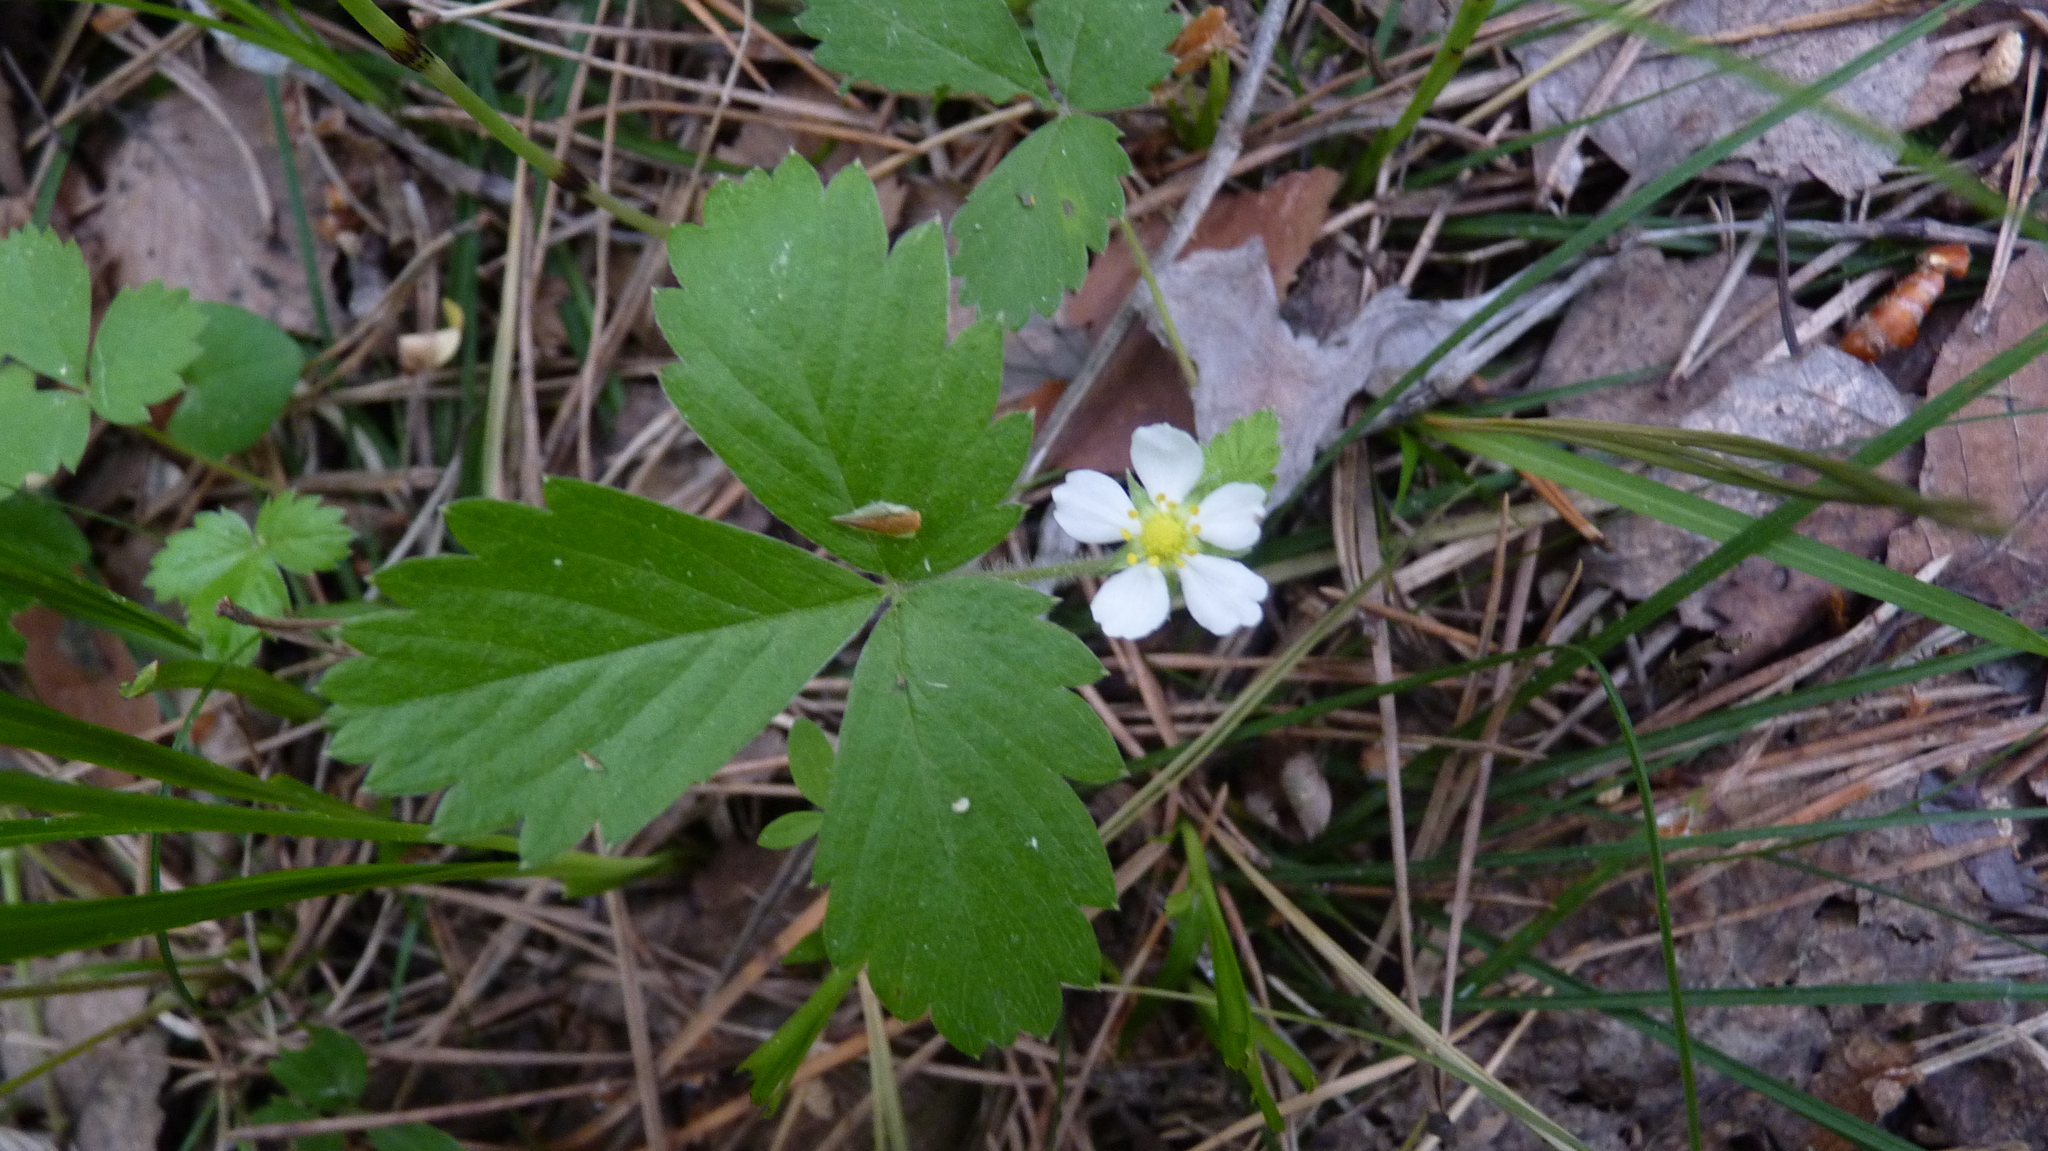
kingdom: Plantae
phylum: Tracheophyta
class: Magnoliopsida
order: Rosales
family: Rosaceae
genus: Fragaria
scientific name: Fragaria vesca
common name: Wild strawberry
